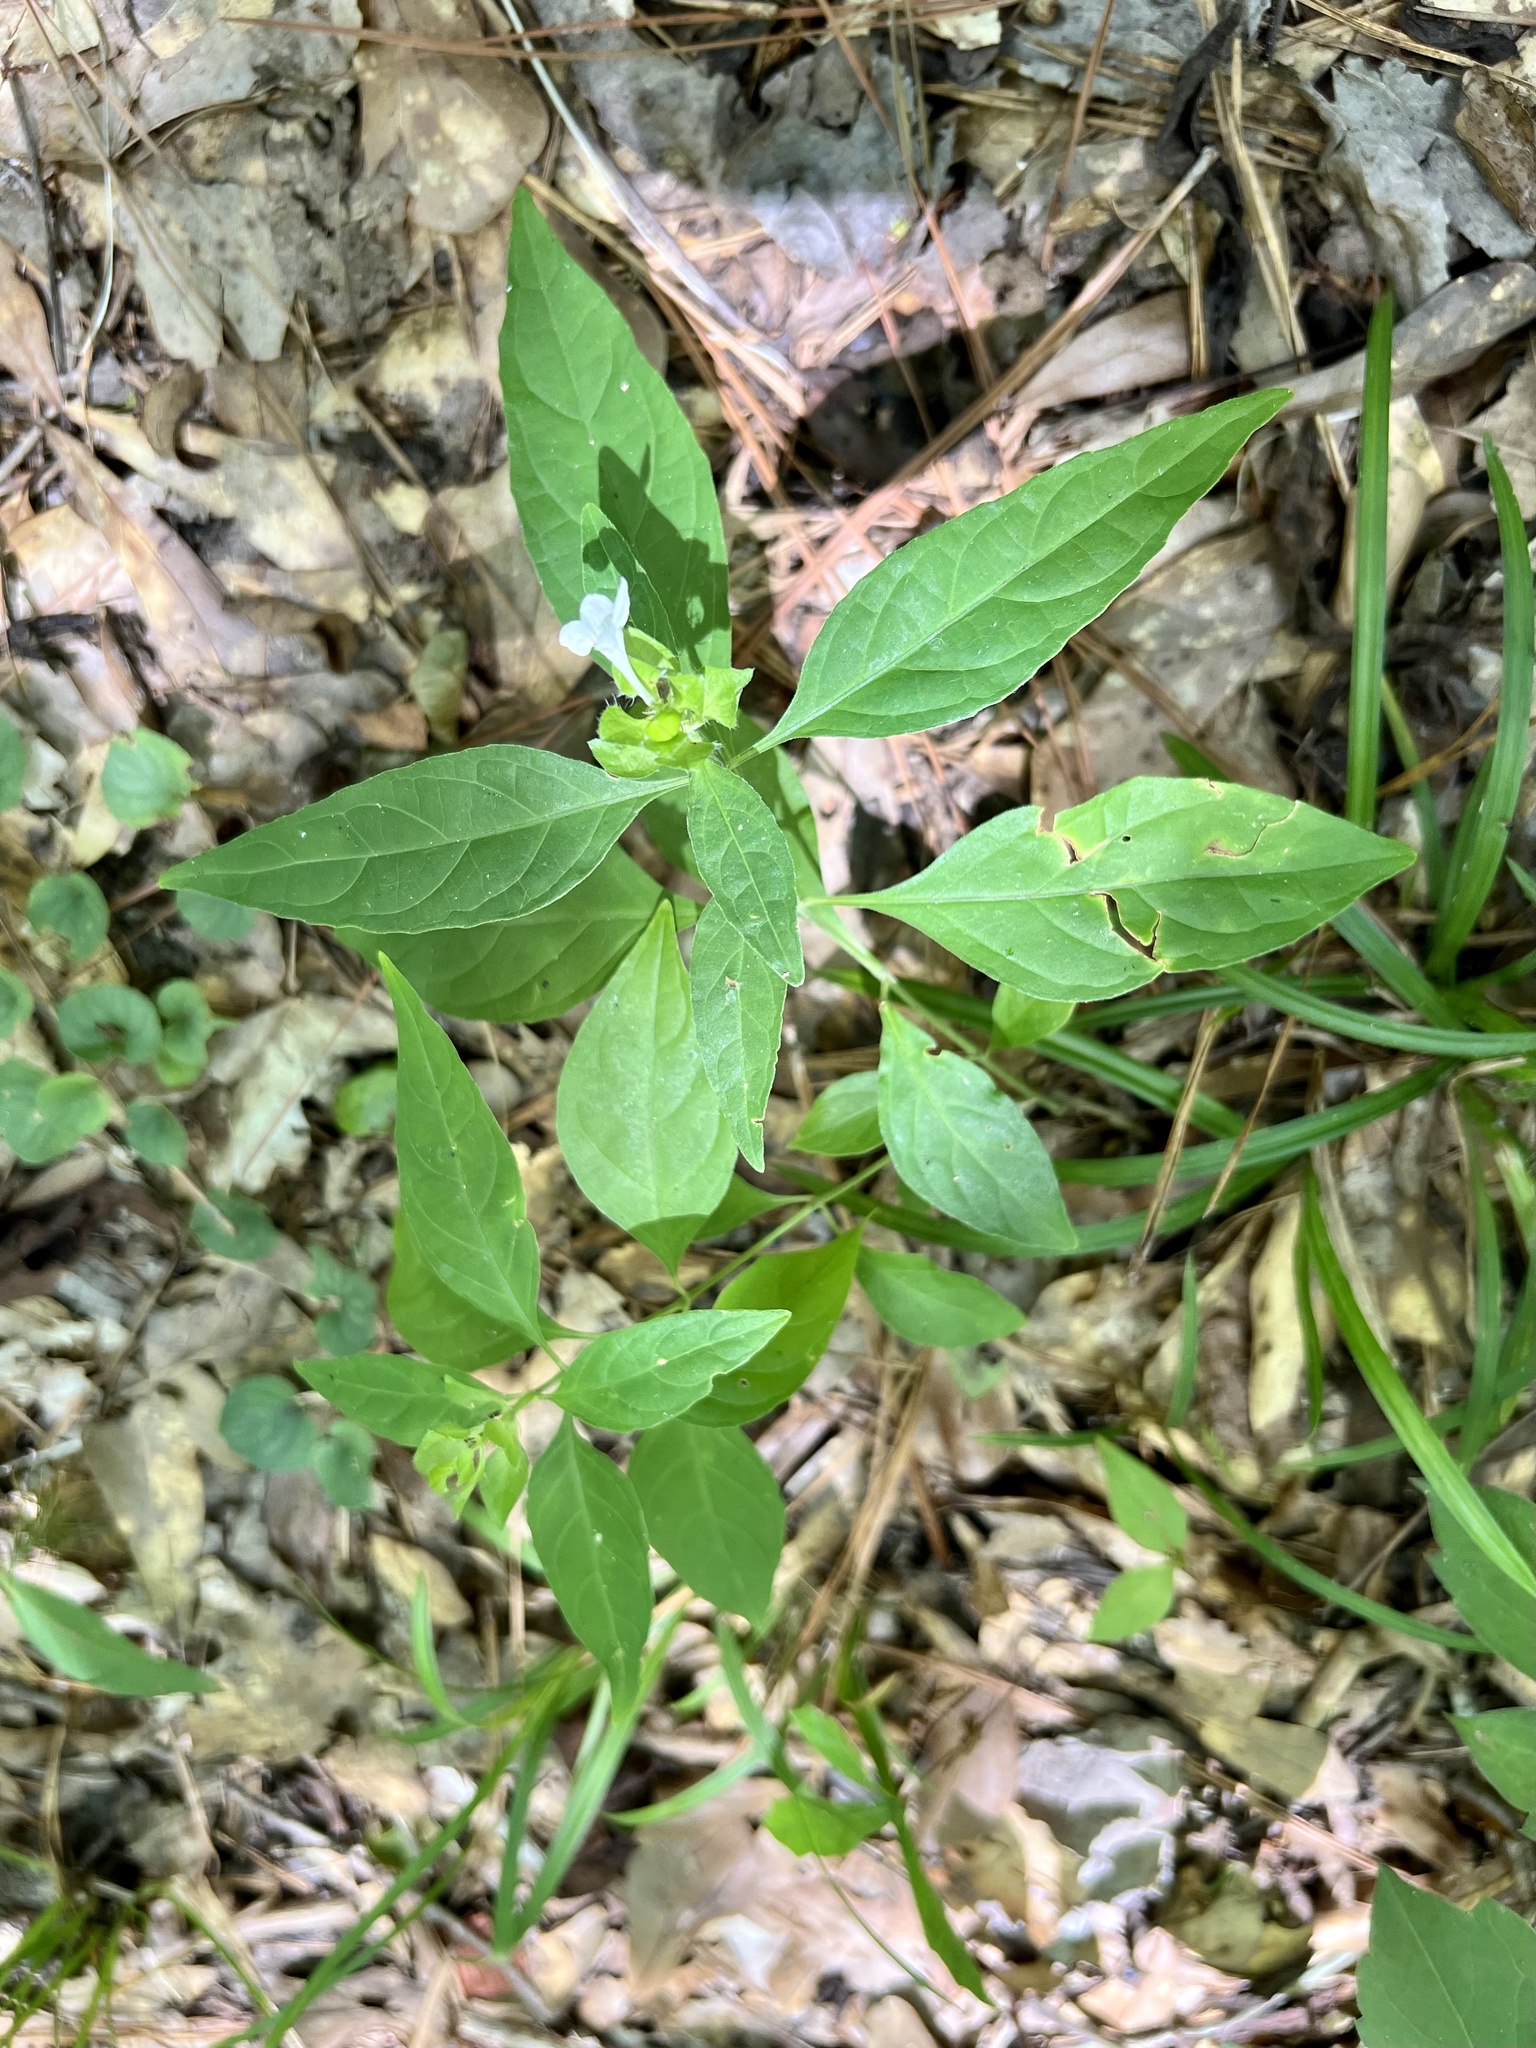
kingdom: Plantae
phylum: Tracheophyta
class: Magnoliopsida
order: Lamiales
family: Acanthaceae
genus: Yeatesia
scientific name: Yeatesia viridiflora
